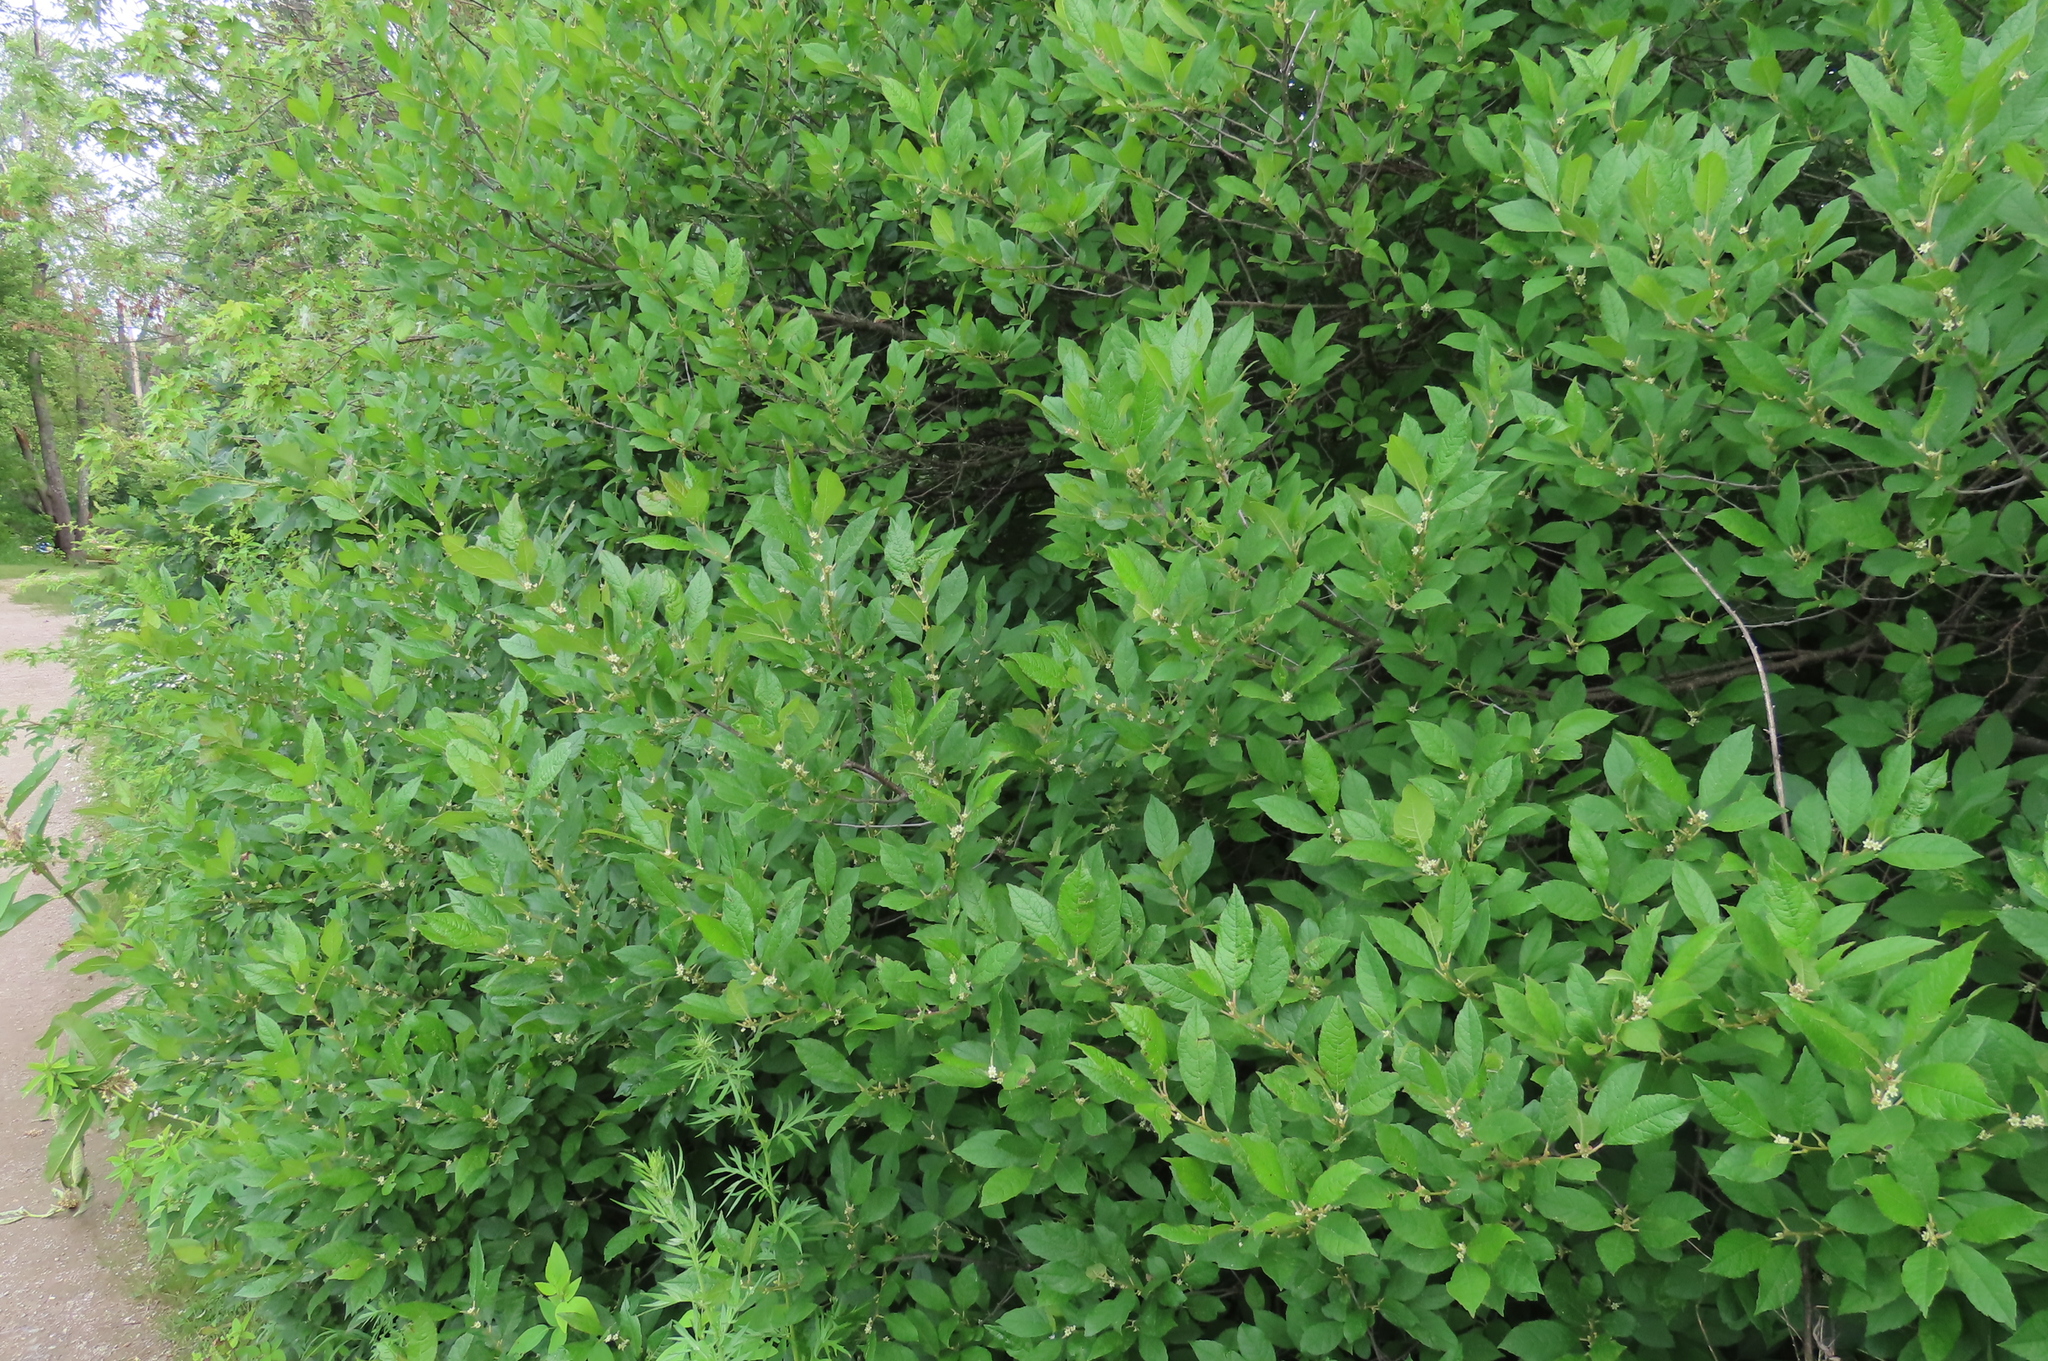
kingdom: Plantae
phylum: Tracheophyta
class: Magnoliopsida
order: Aquifoliales
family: Aquifoliaceae
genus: Ilex
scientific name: Ilex verticillata
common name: Virginia winterberry
